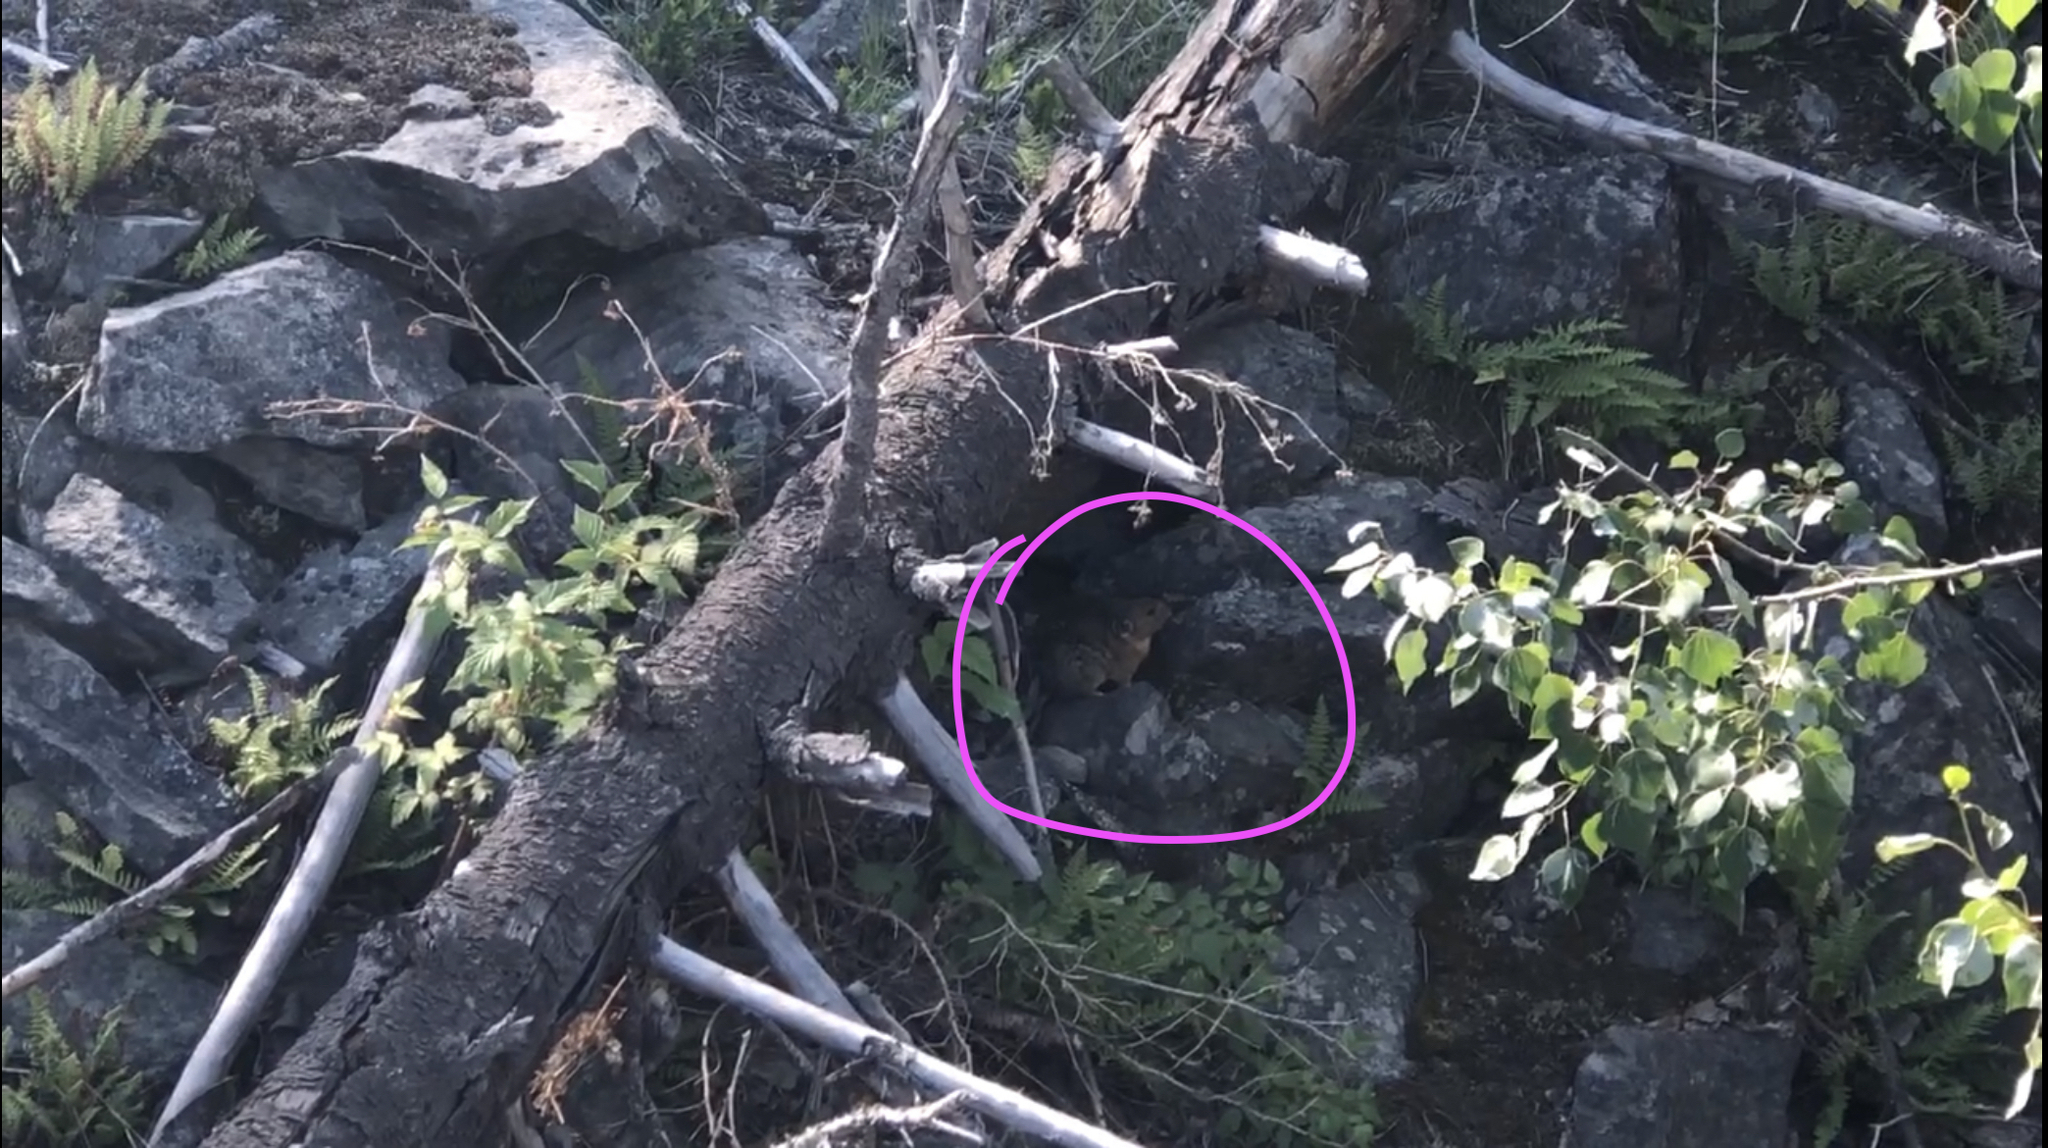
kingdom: Animalia
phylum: Chordata
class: Mammalia
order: Lagomorpha
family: Ochotonidae
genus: Ochotona
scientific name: Ochotona princeps
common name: American pika
